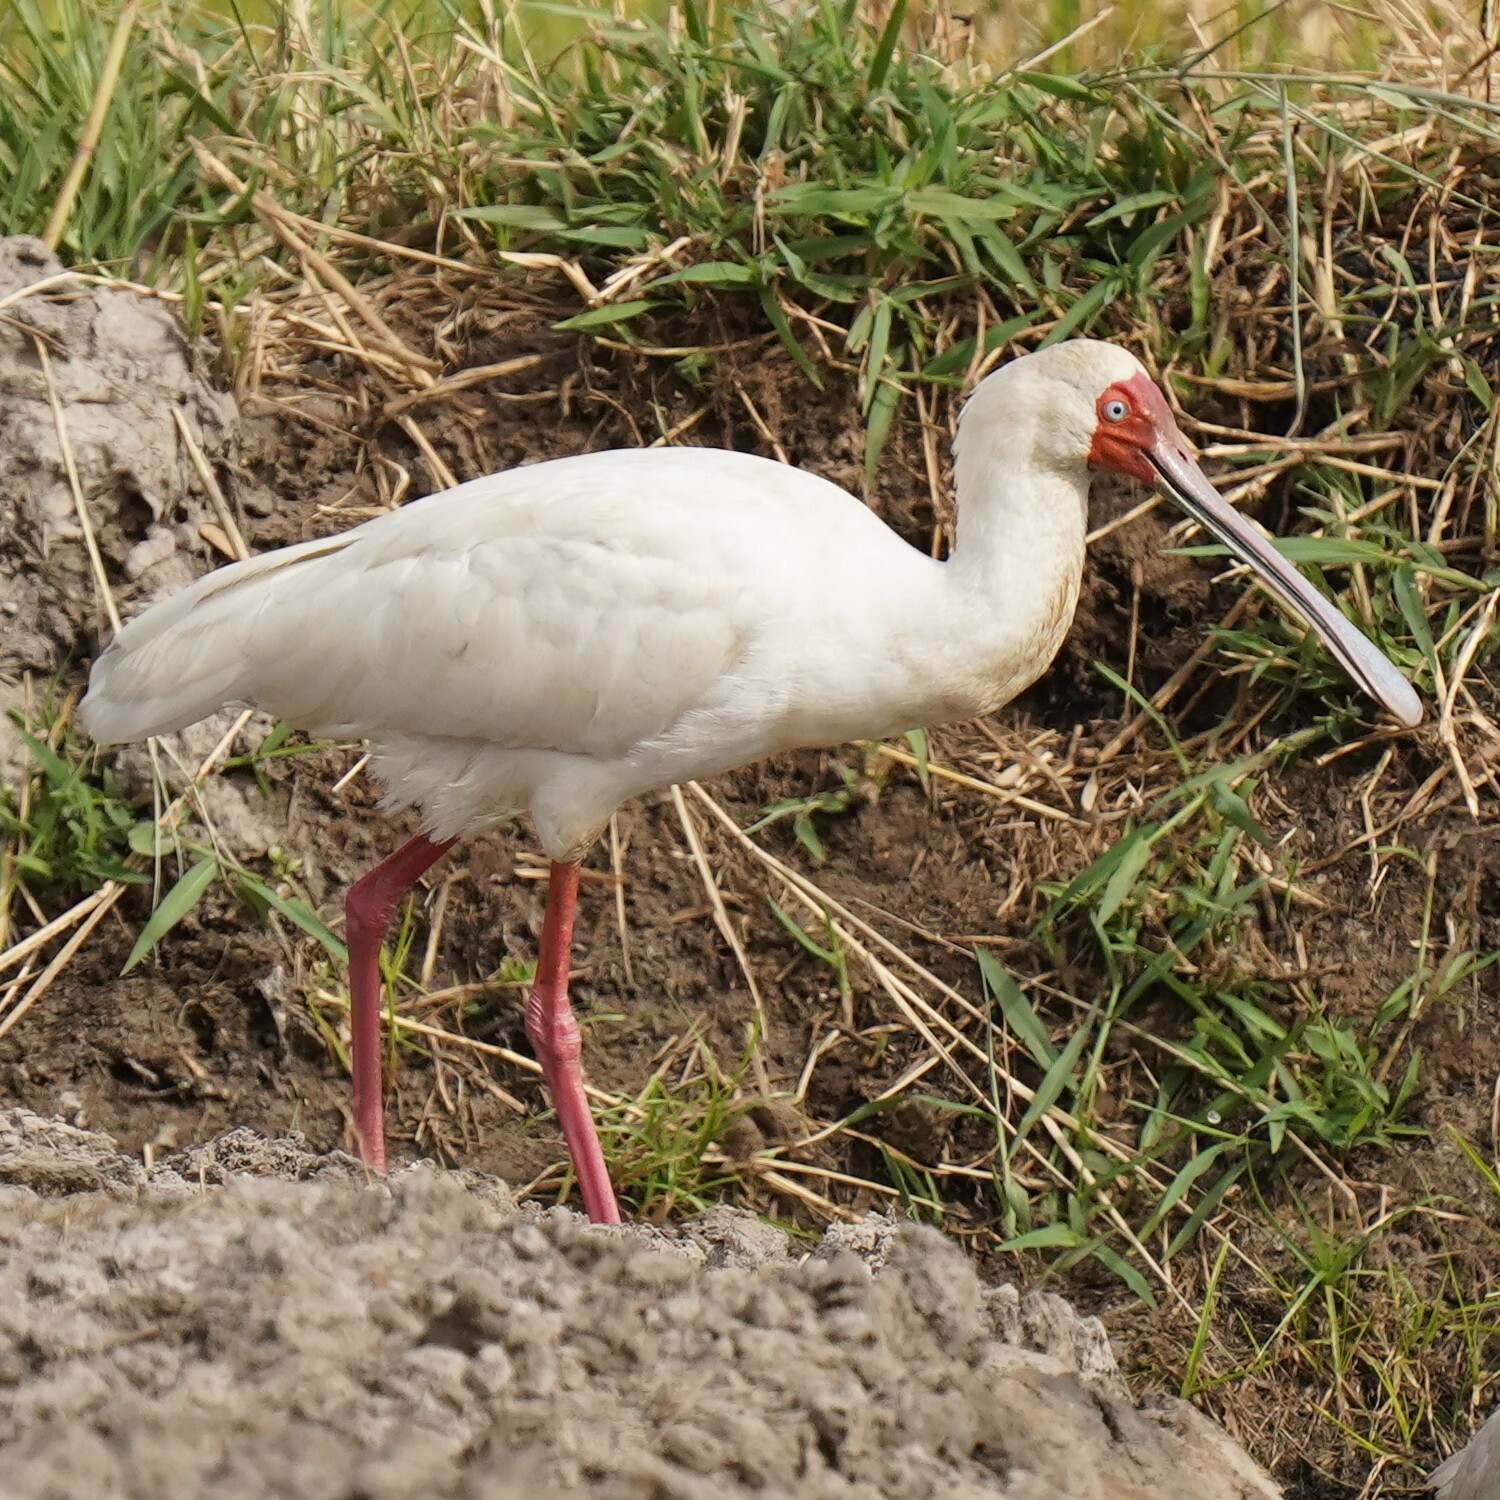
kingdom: Animalia
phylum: Chordata
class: Aves
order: Pelecaniformes
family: Threskiornithidae
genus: Platalea
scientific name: Platalea alba
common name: African spoonbill
